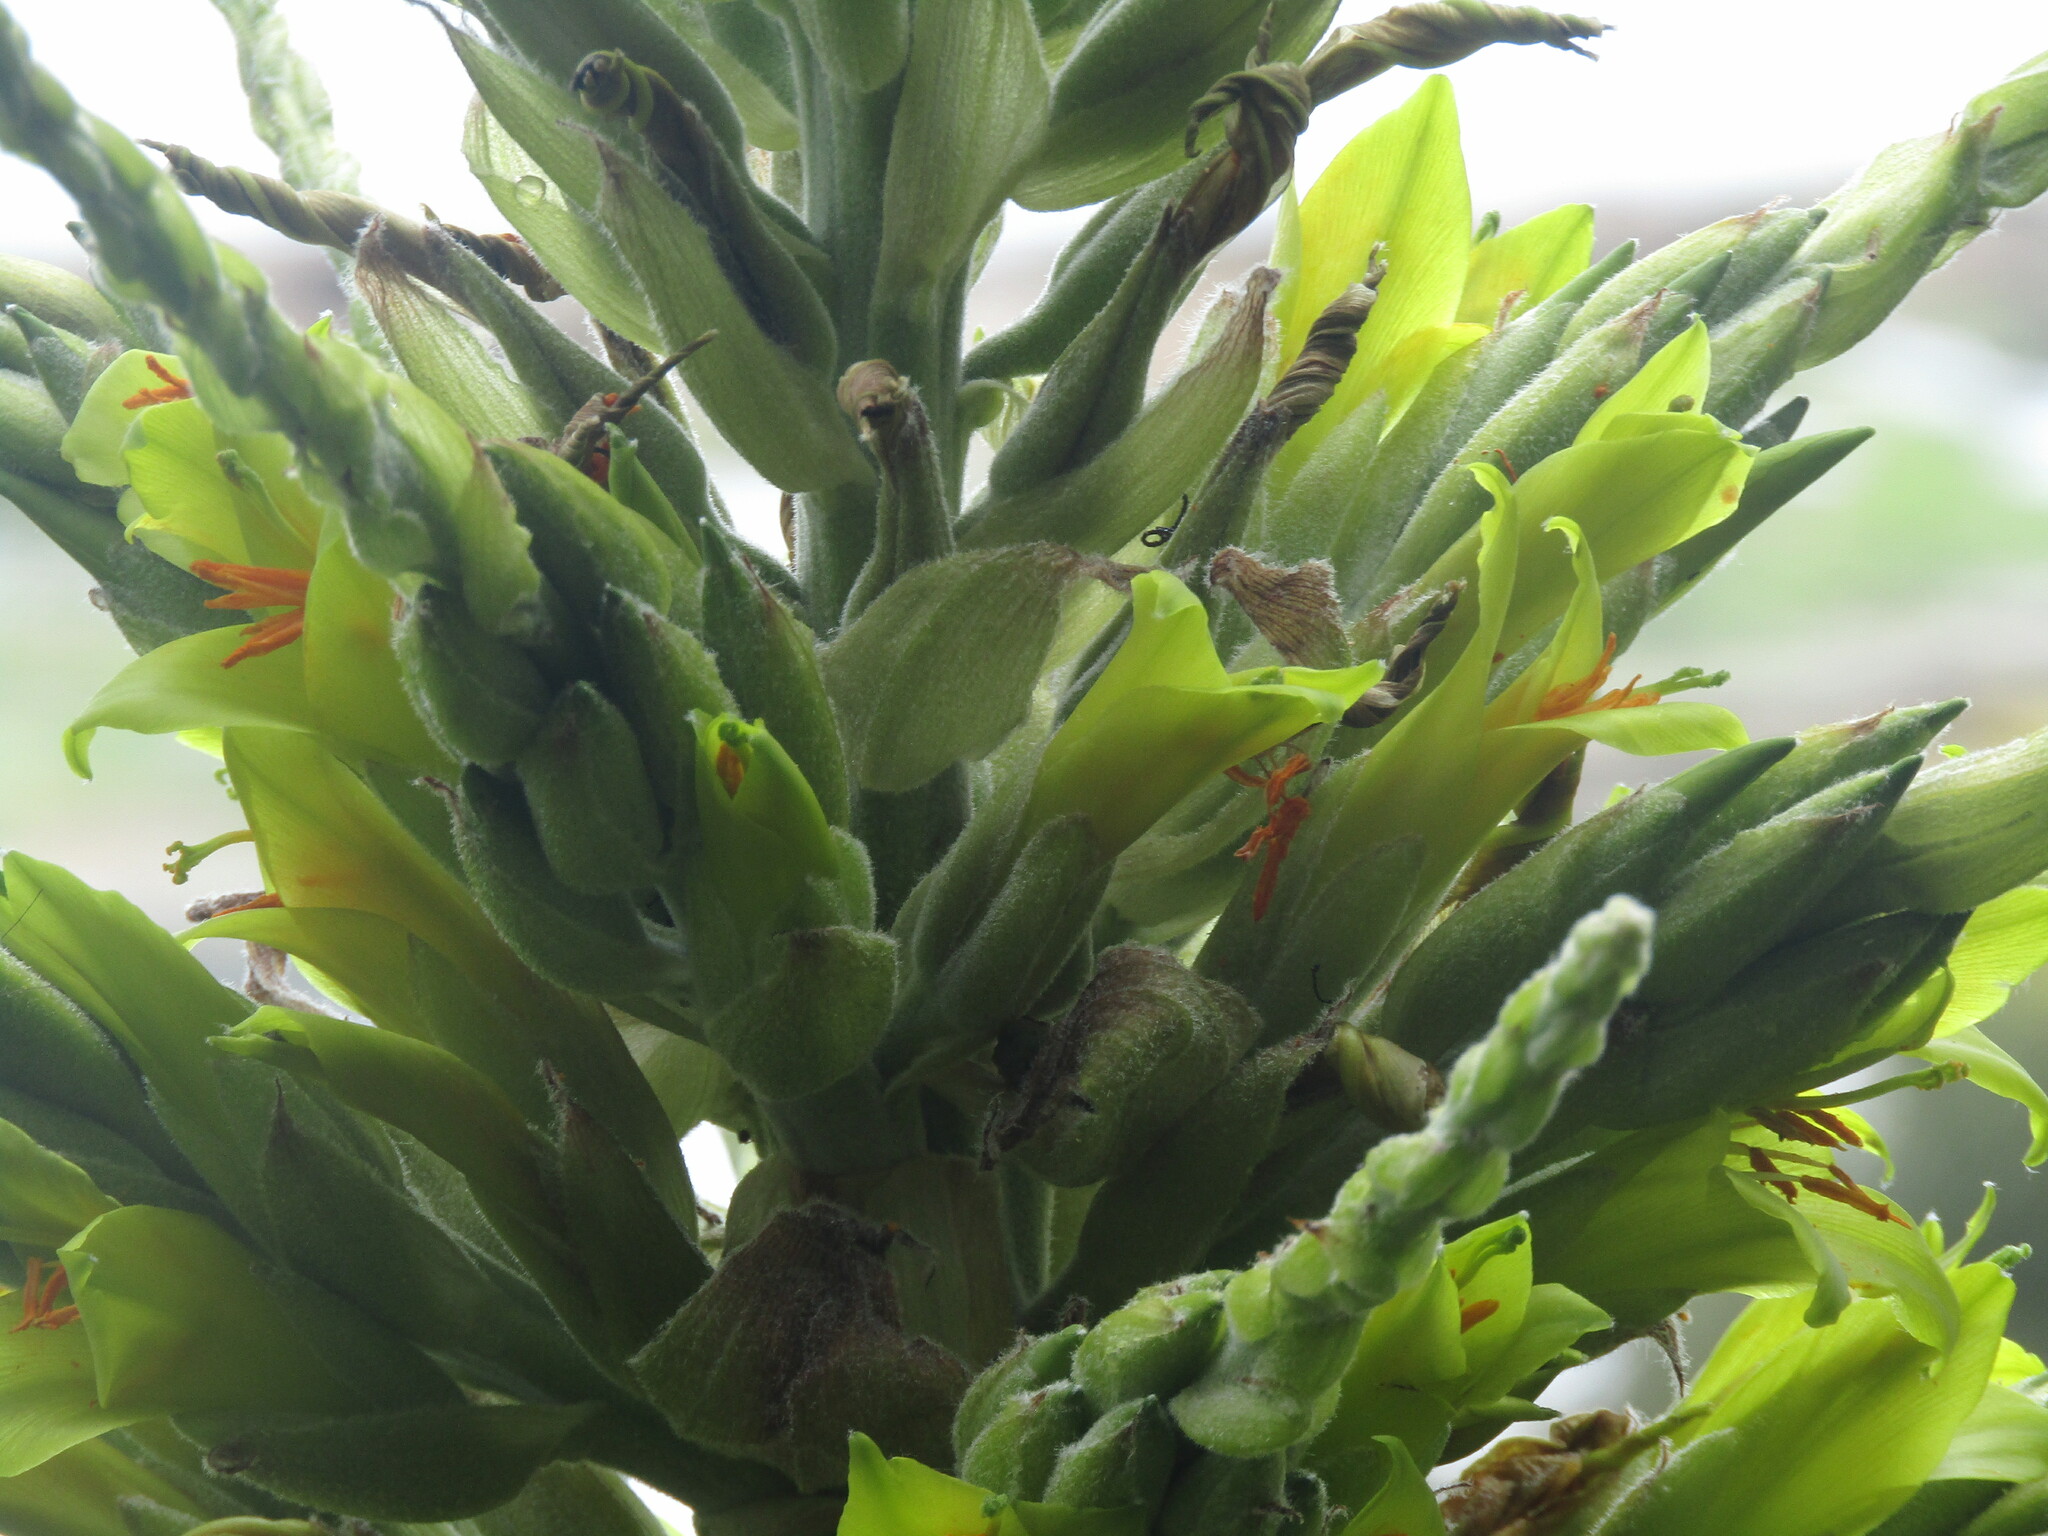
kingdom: Plantae
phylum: Tracheophyta
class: Liliopsida
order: Poales
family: Bromeliaceae
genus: Puya
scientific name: Puya chilensis
